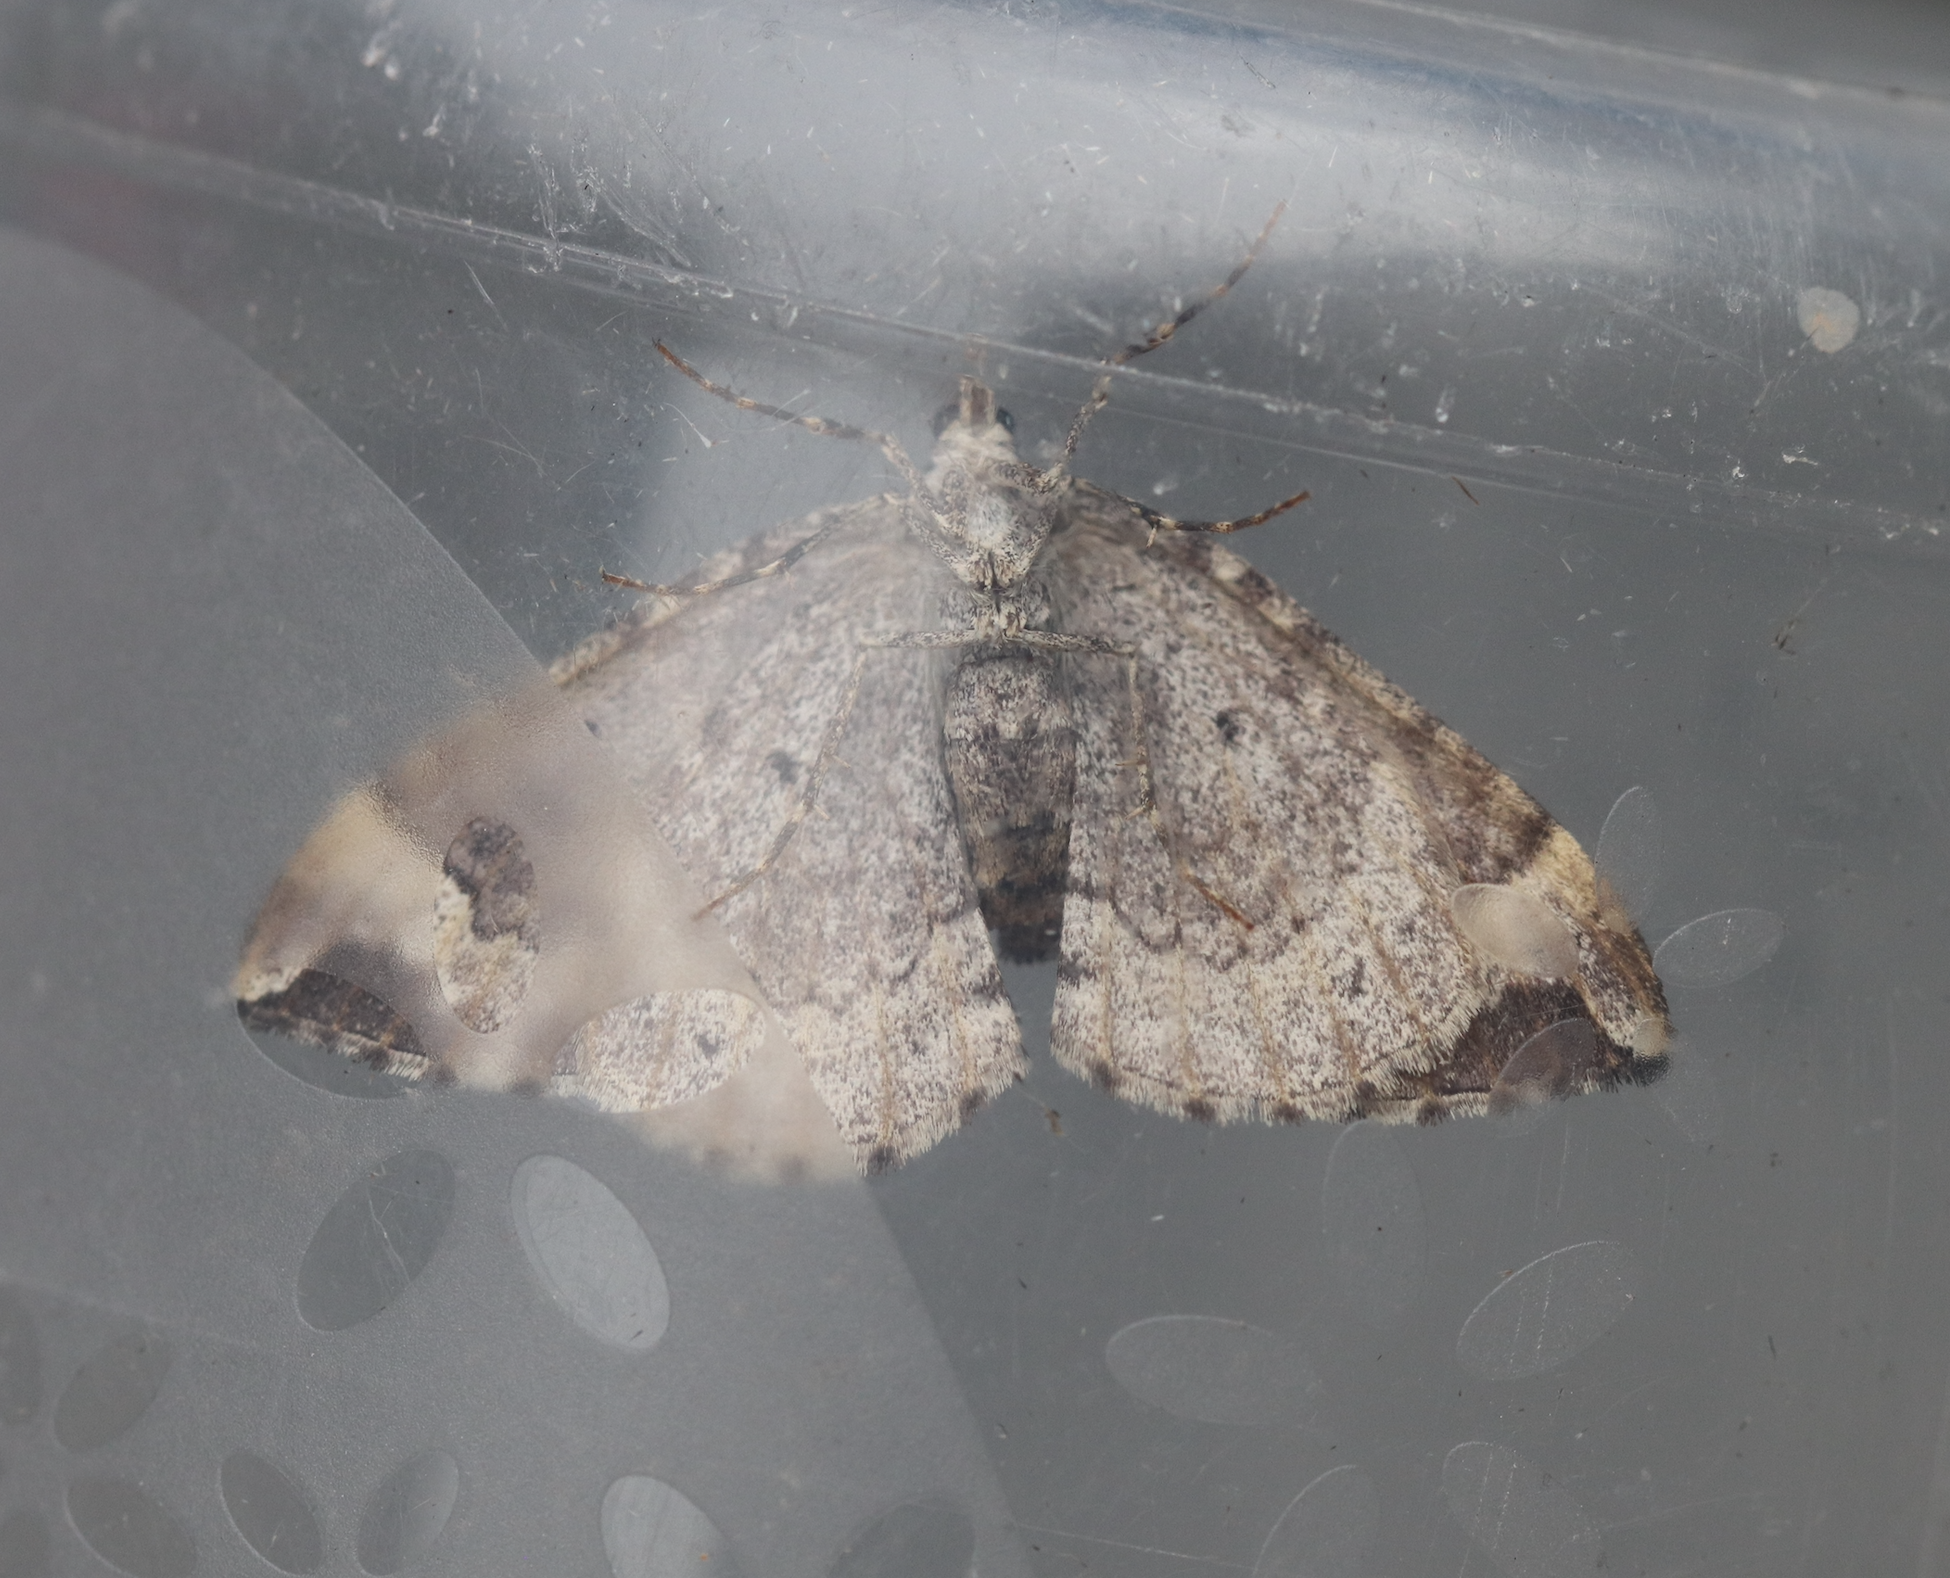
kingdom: Animalia
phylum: Arthropoda
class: Insecta
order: Lepidoptera
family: Geometridae
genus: Eulithis
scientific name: Eulithis xylina
